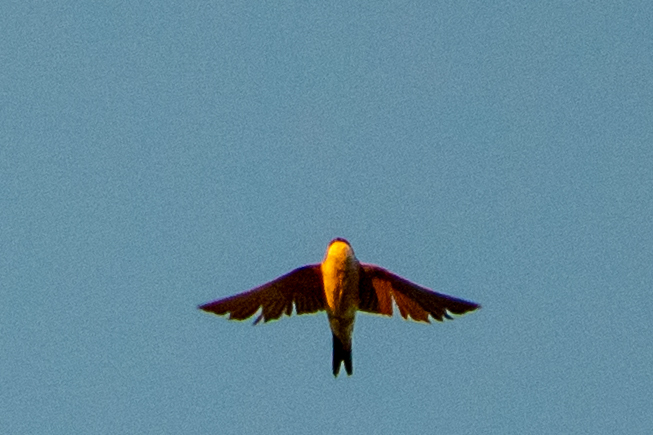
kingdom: Animalia
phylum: Chordata
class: Aves
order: Passeriformes
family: Hirundinidae
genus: Delichon
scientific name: Delichon urbicum
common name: Common house martin
